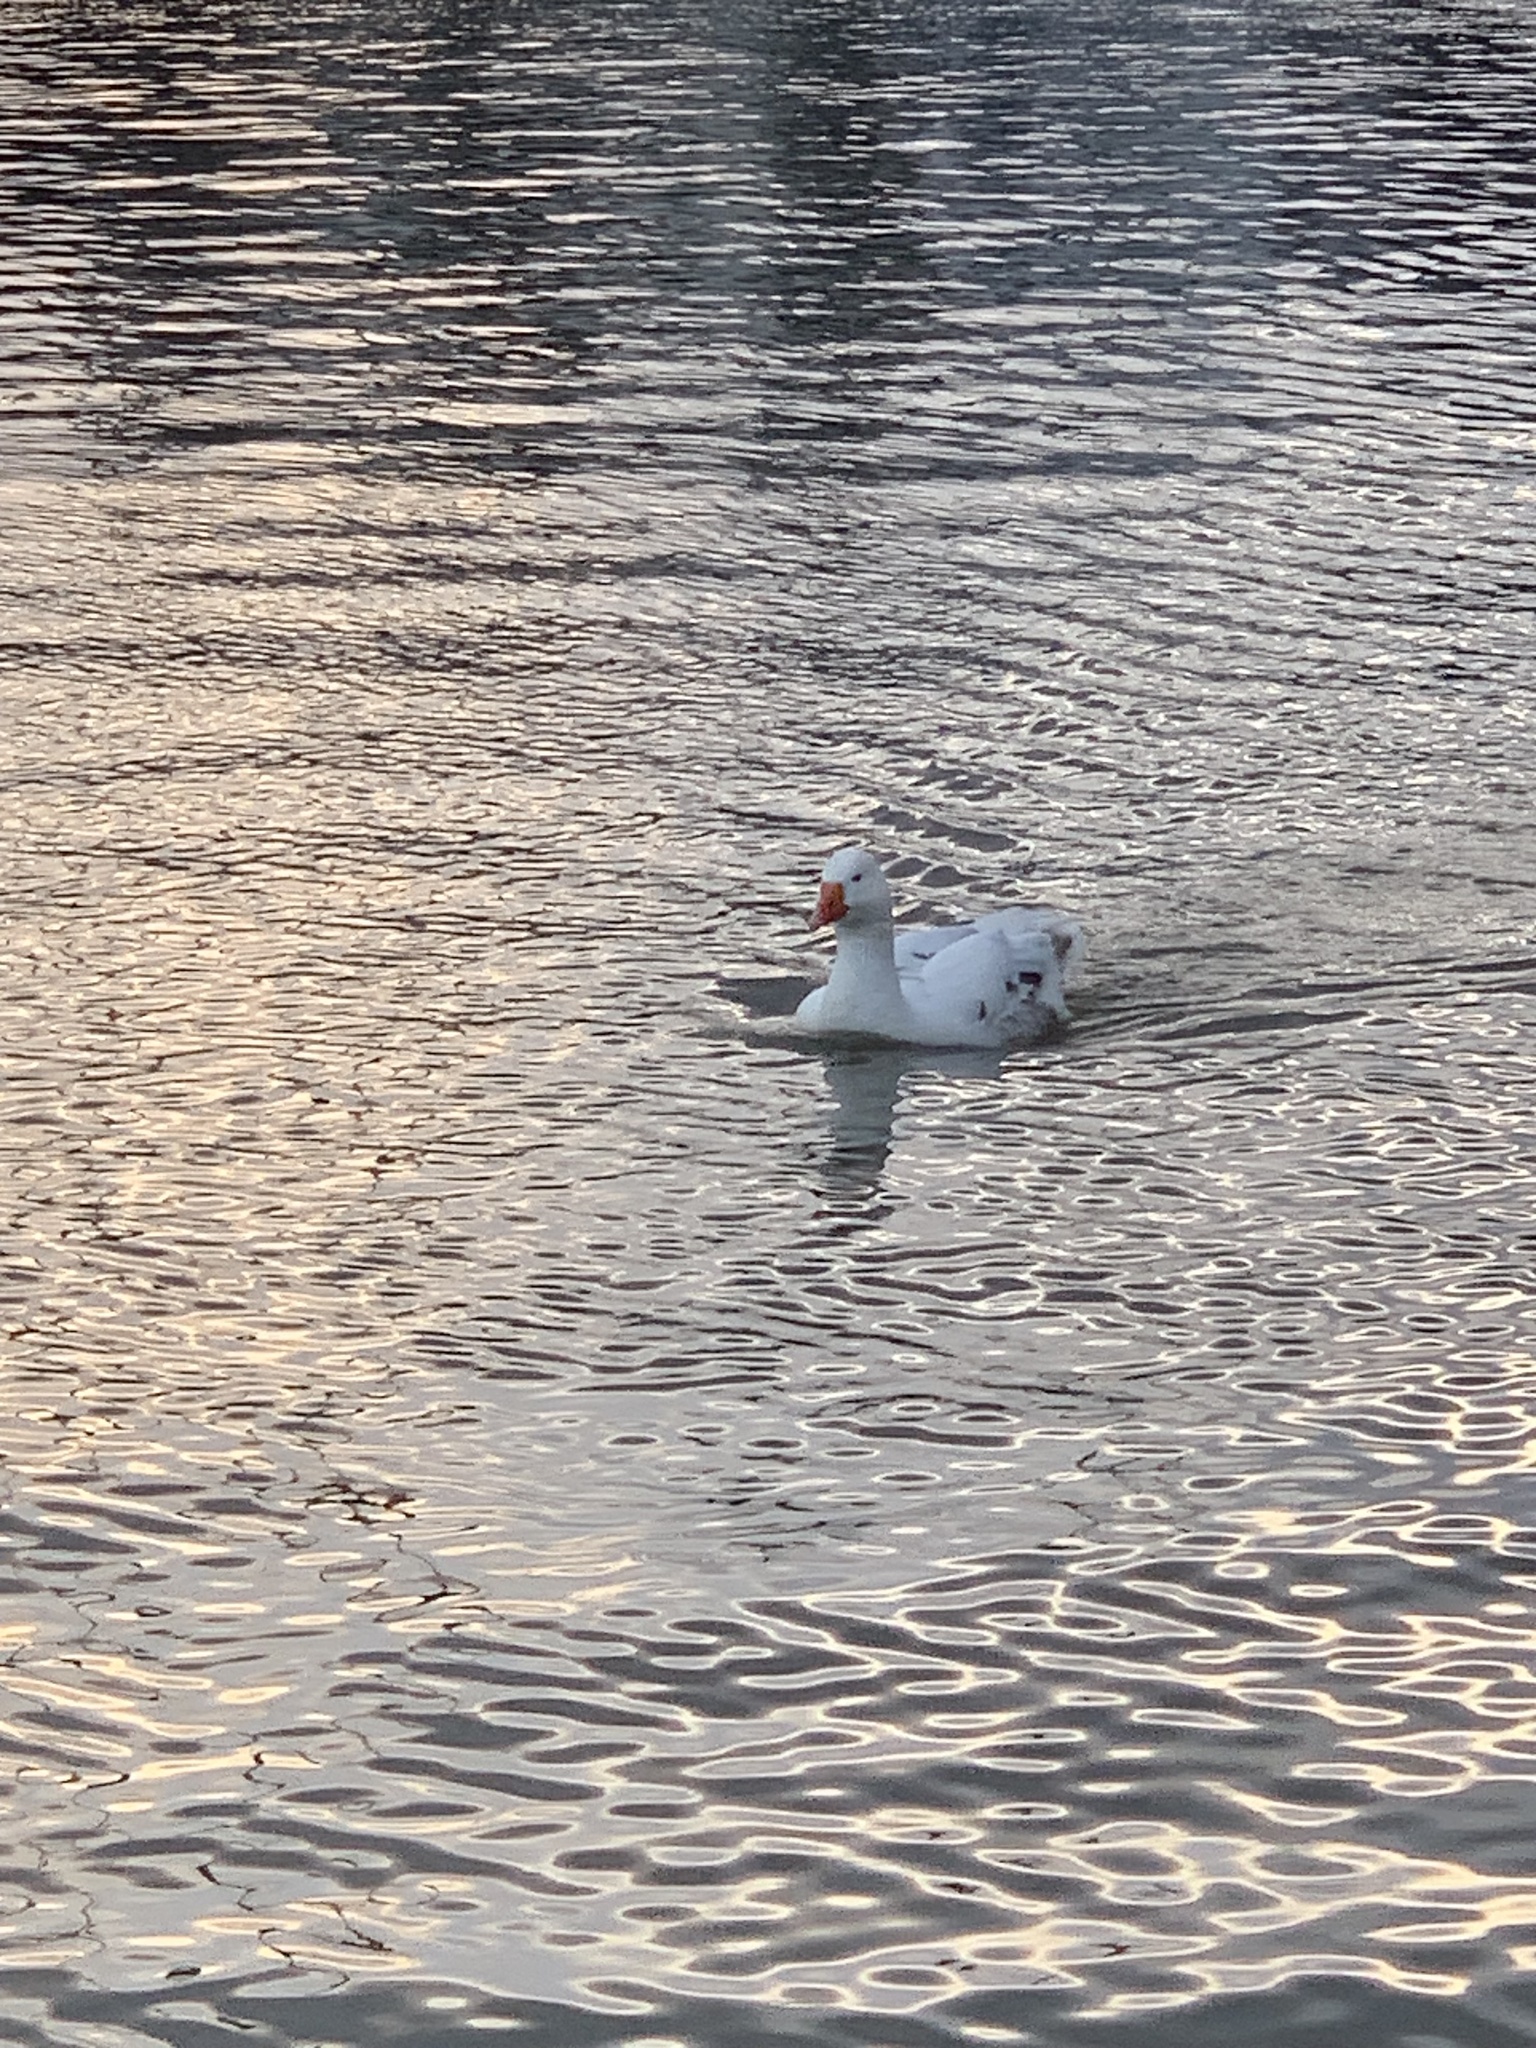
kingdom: Animalia
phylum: Chordata
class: Aves
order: Anseriformes
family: Anatidae
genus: Anser
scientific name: Anser anser
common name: Greylag goose
